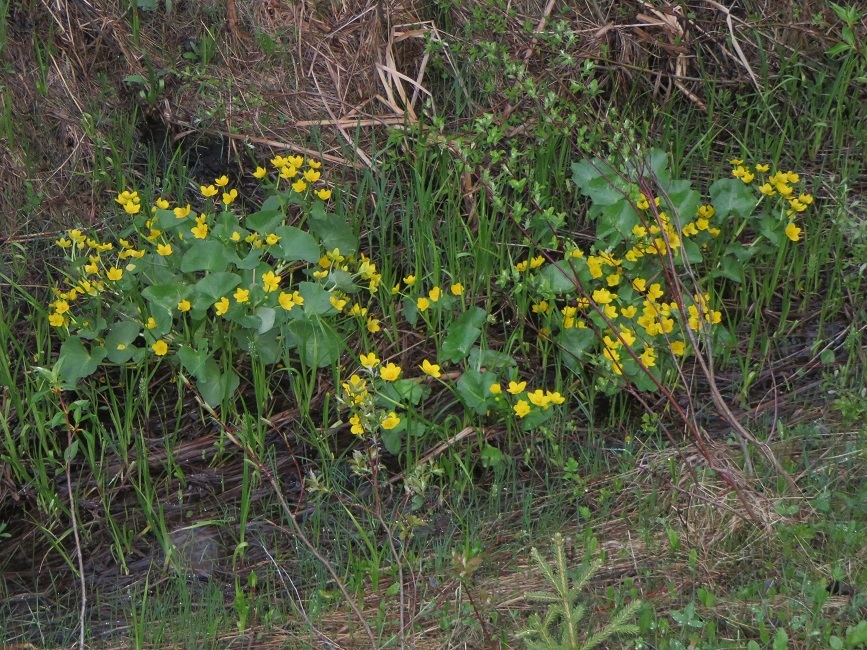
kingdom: Plantae
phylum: Tracheophyta
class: Magnoliopsida
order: Ranunculales
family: Ranunculaceae
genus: Caltha
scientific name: Caltha palustris
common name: Marsh marigold
